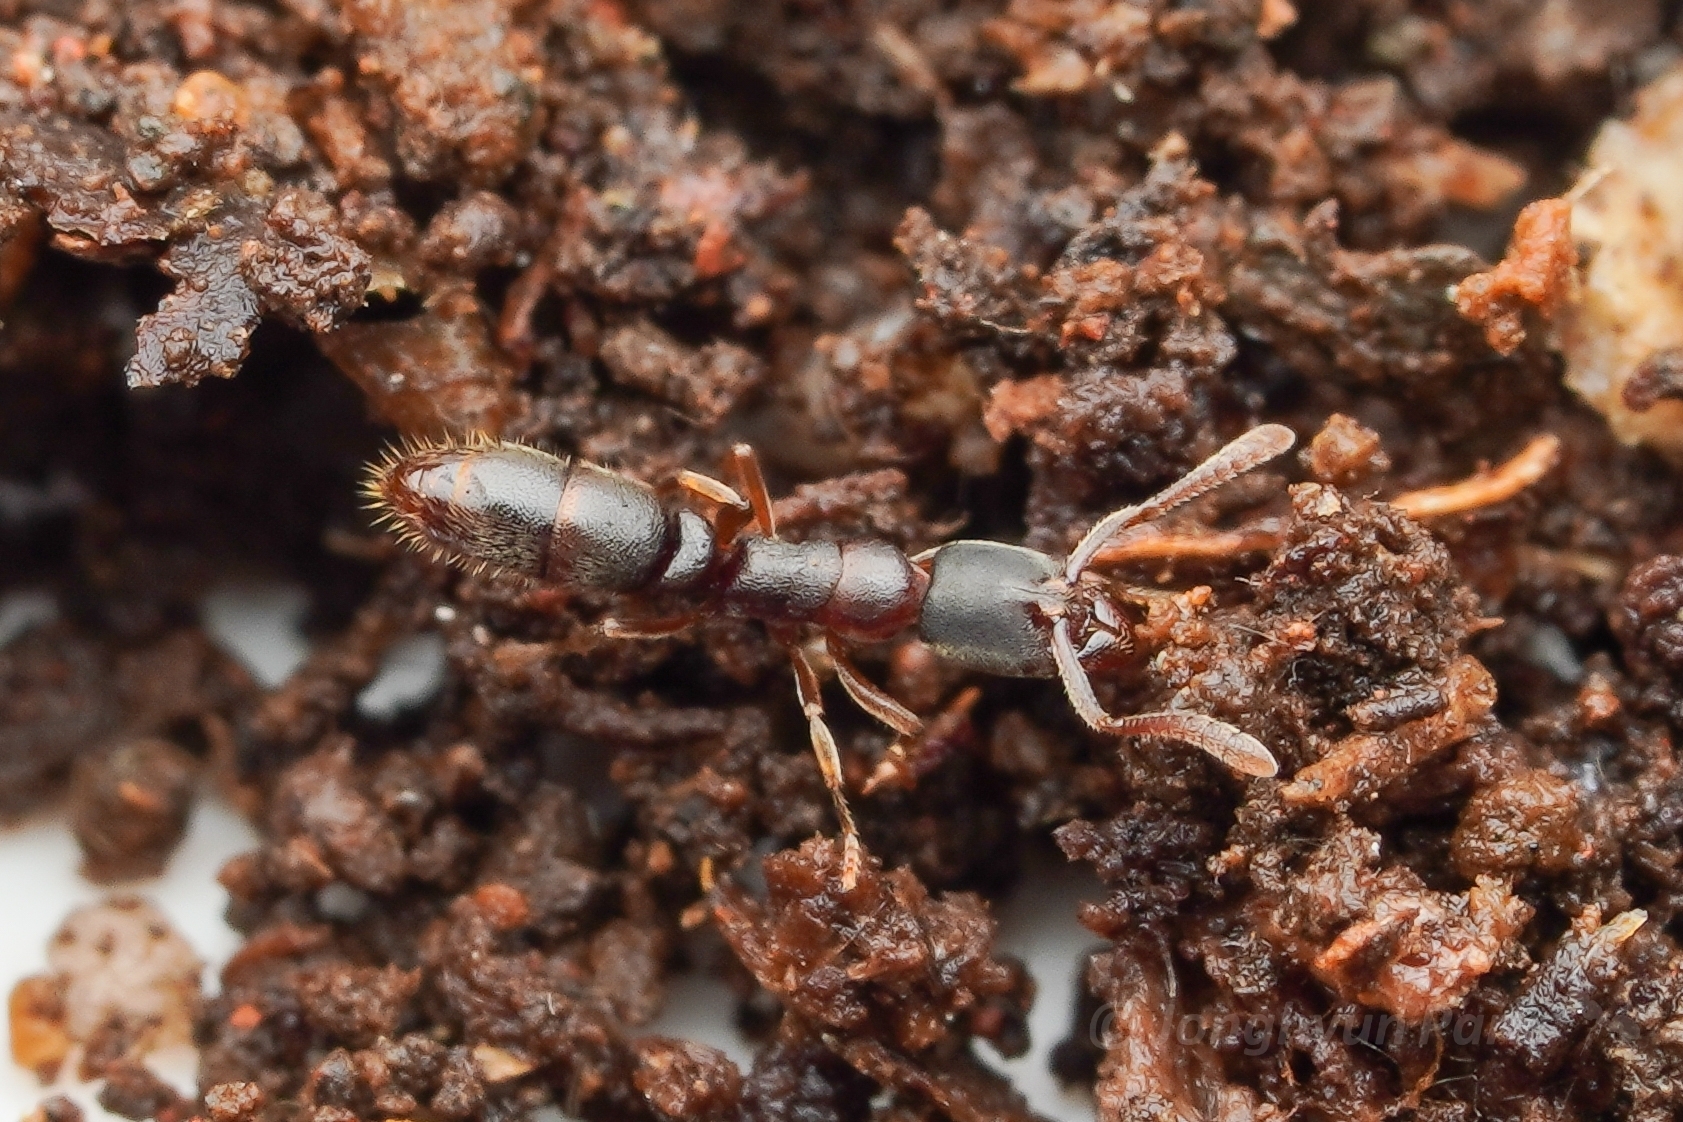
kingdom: Animalia
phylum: Arthropoda
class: Insecta
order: Hymenoptera
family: Formicidae
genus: Ponera
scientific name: Ponera japonica
